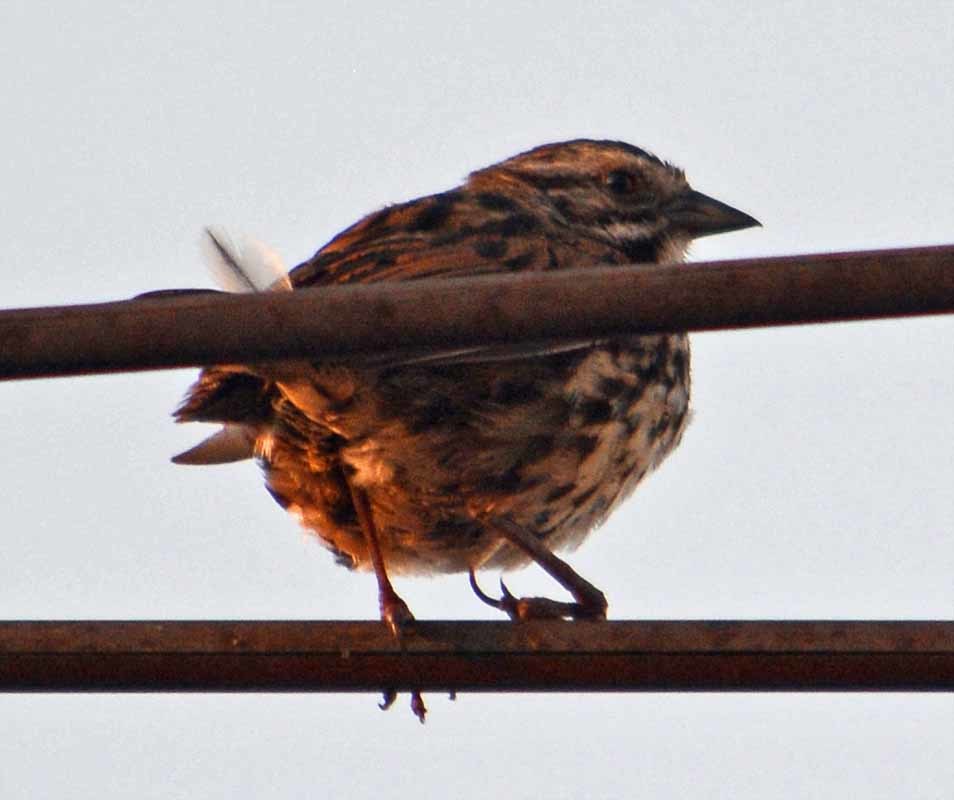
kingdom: Animalia
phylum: Chordata
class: Aves
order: Passeriformes
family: Passerellidae
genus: Melospiza
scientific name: Melospiza melodia
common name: Song sparrow
